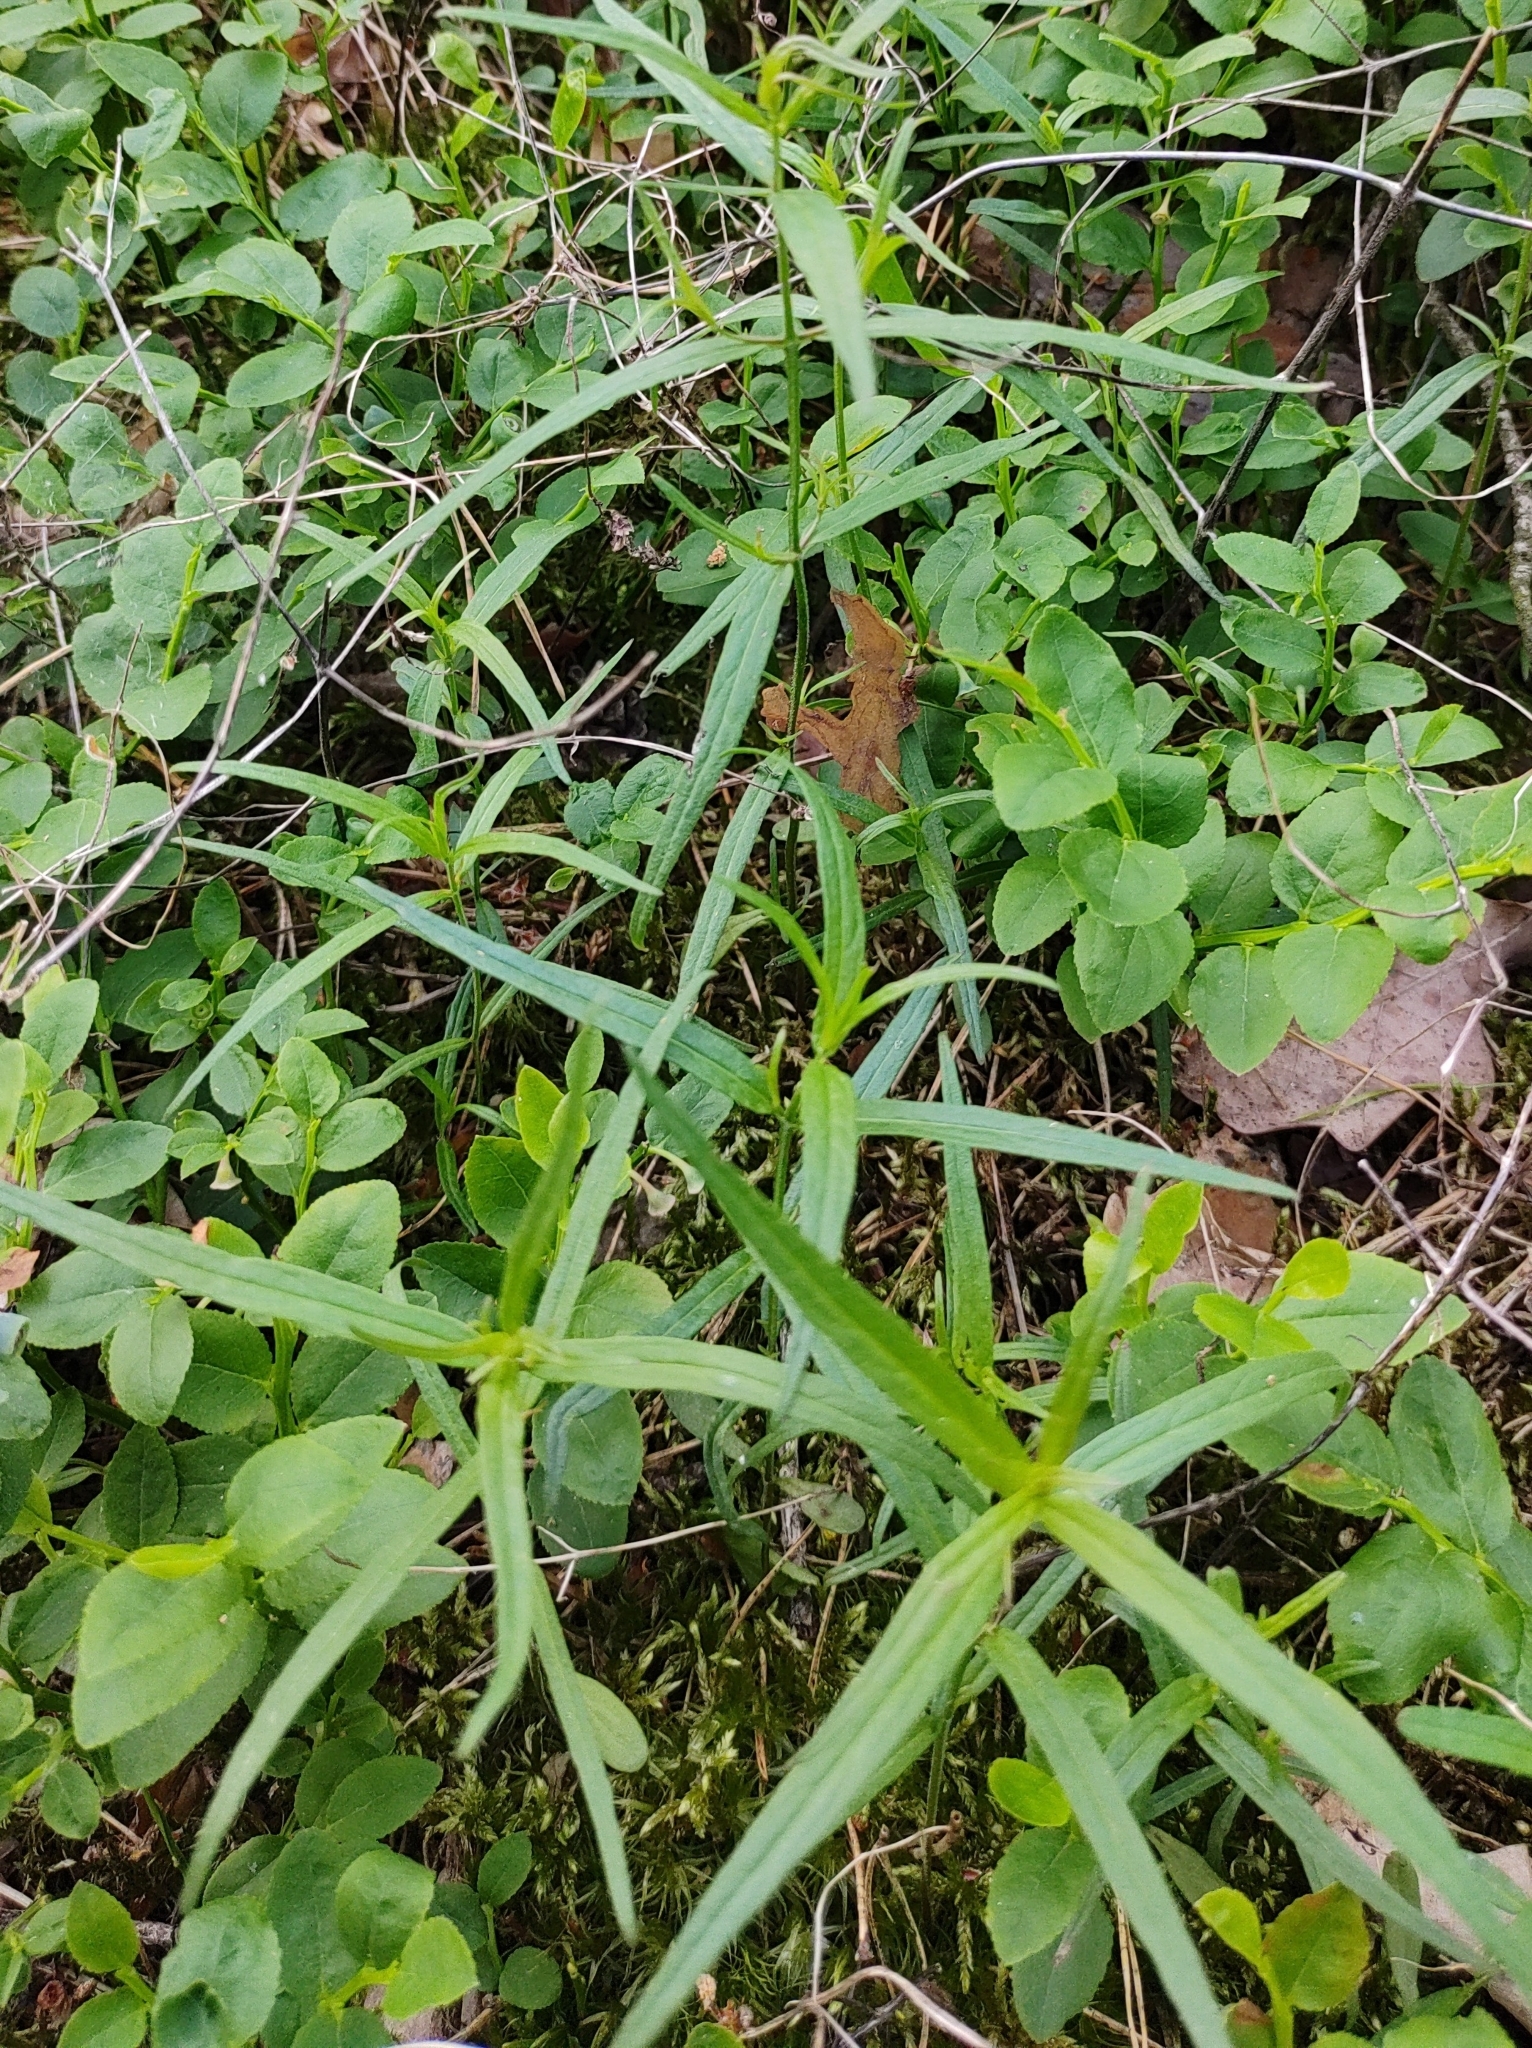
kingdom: Plantae
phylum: Tracheophyta
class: Magnoliopsida
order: Caryophyllales
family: Caryophyllaceae
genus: Rabelera
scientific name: Rabelera holostea
